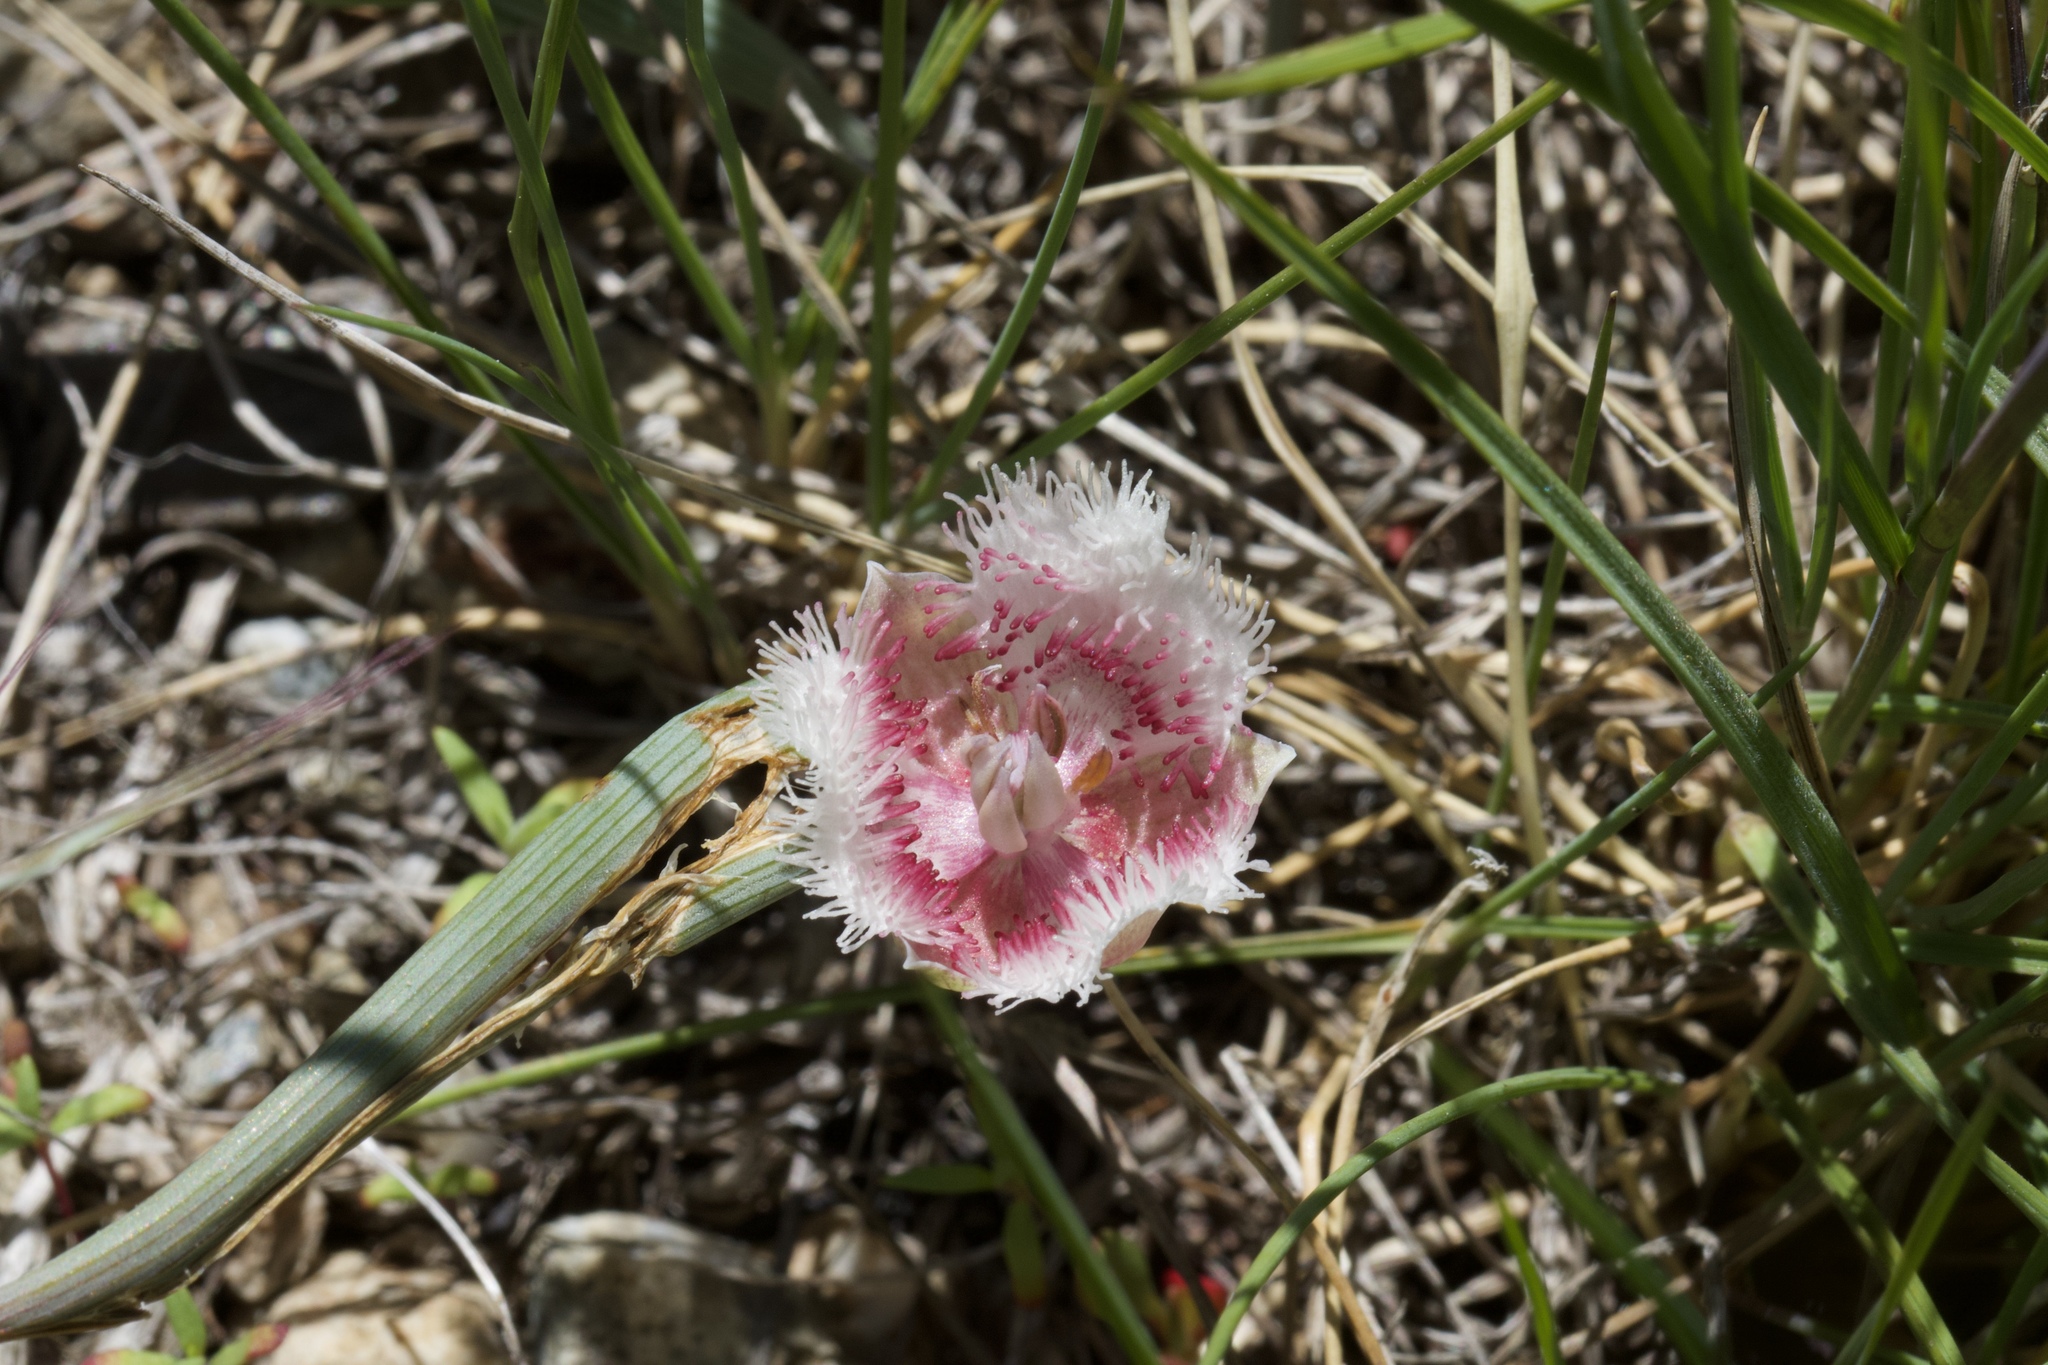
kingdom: Plantae
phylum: Tracheophyta
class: Liliopsida
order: Liliales
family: Liliaceae
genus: Calochortus
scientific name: Calochortus coeruleus
